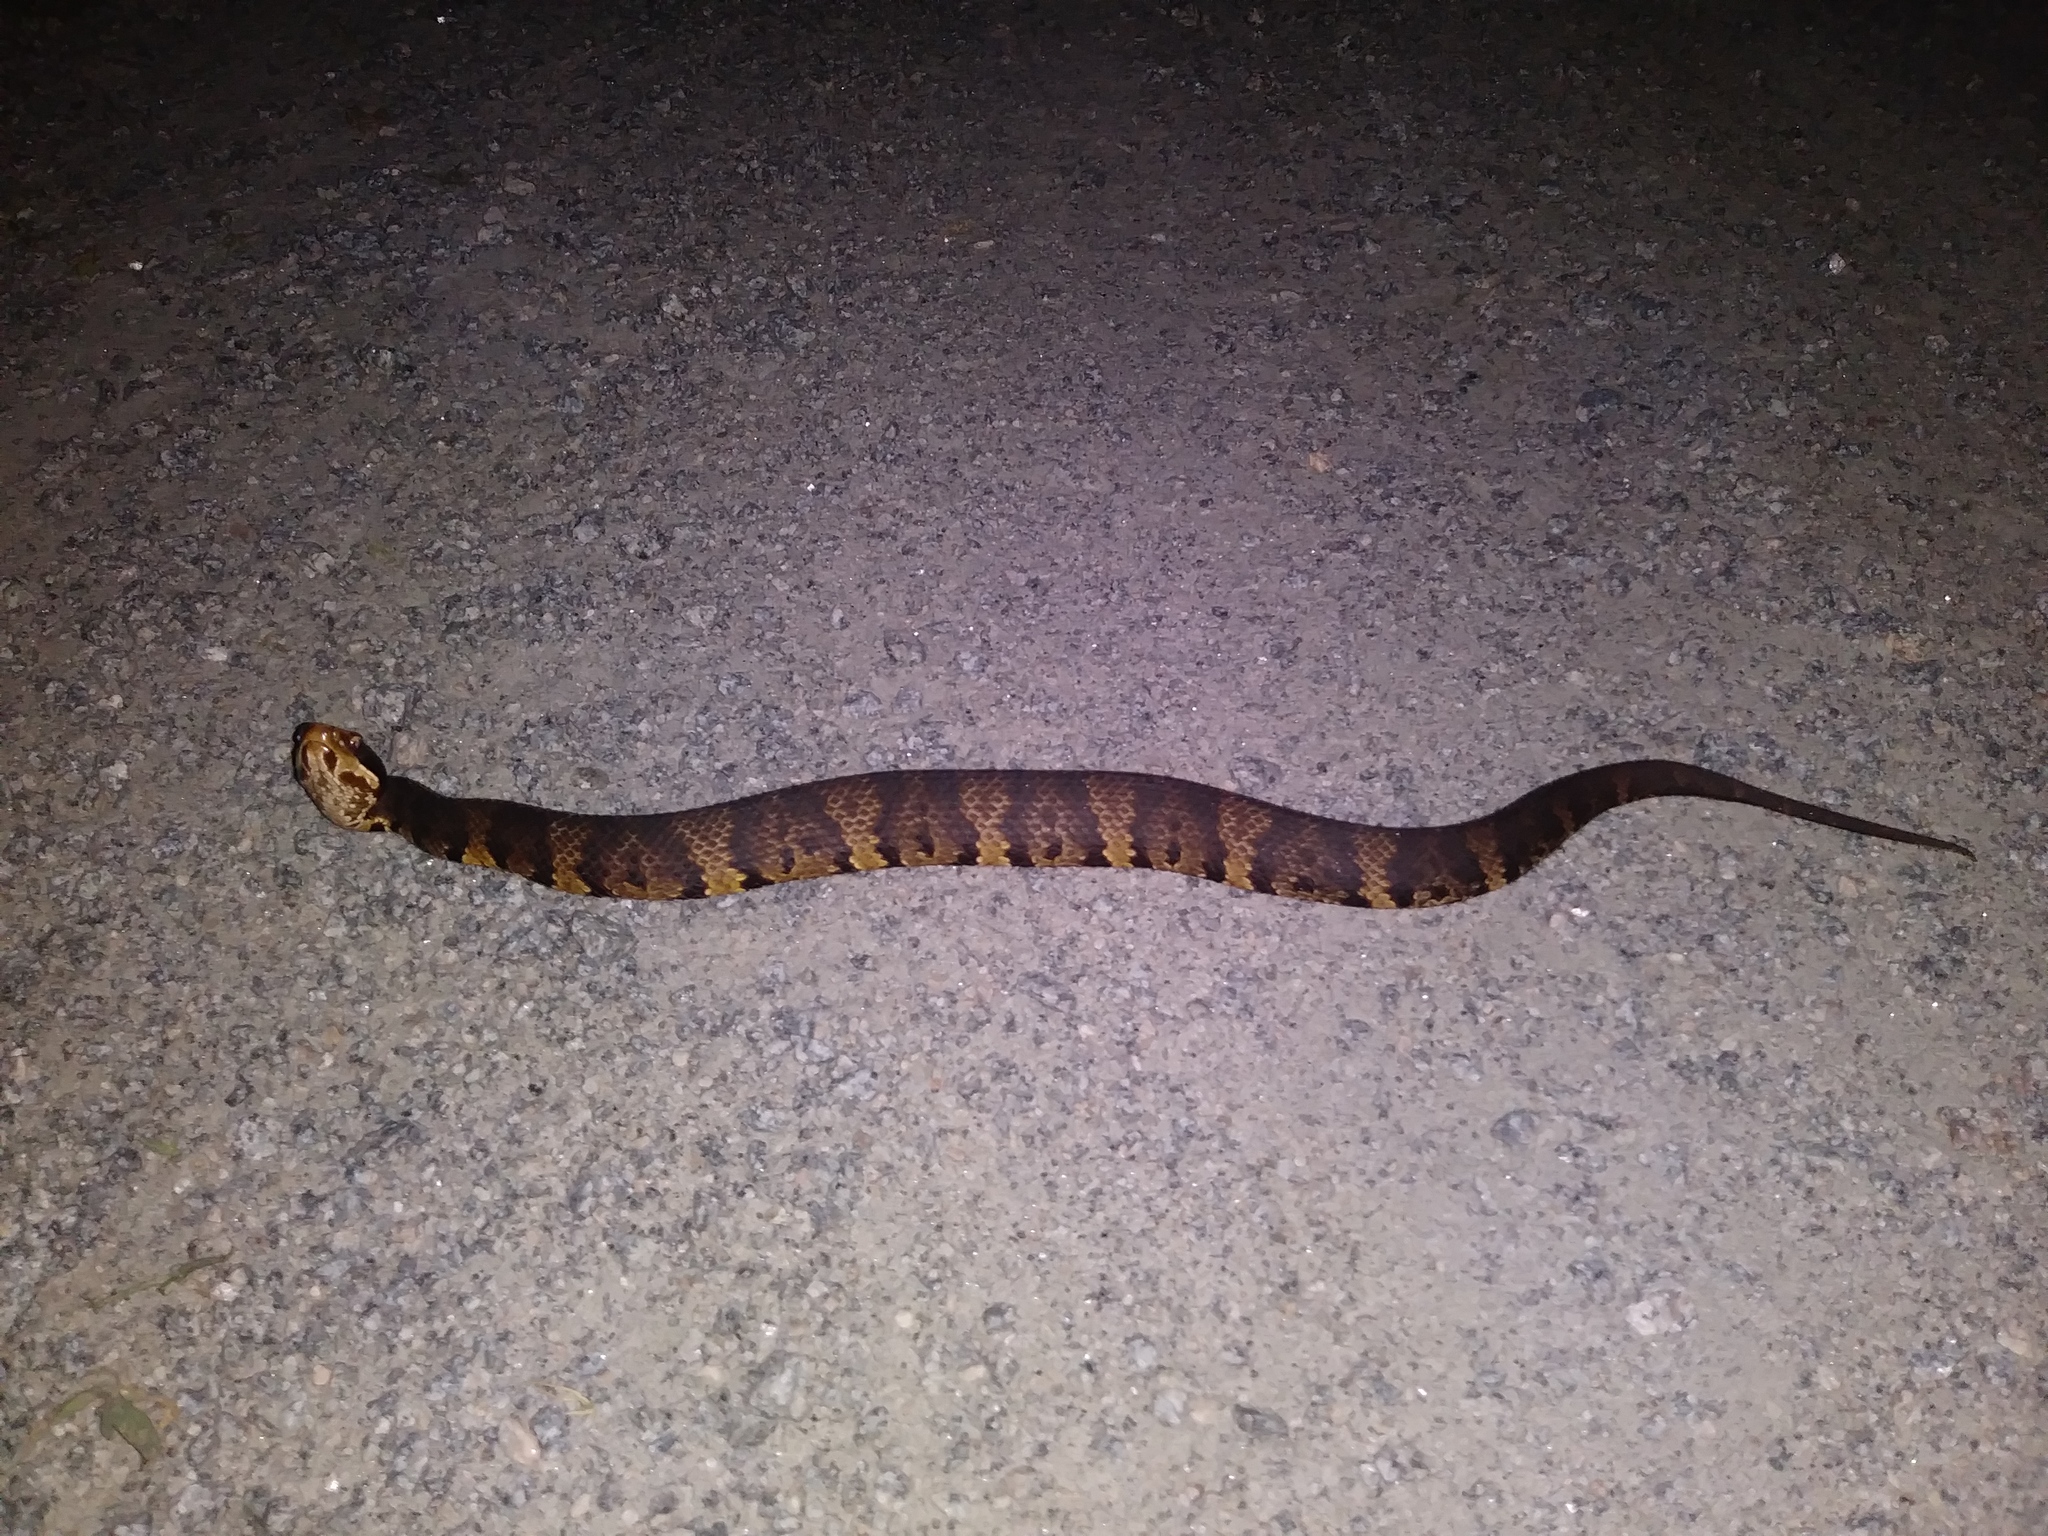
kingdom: Animalia
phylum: Chordata
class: Squamata
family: Viperidae
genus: Agkistrodon
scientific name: Agkistrodon piscivorus
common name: Cottonmouth
